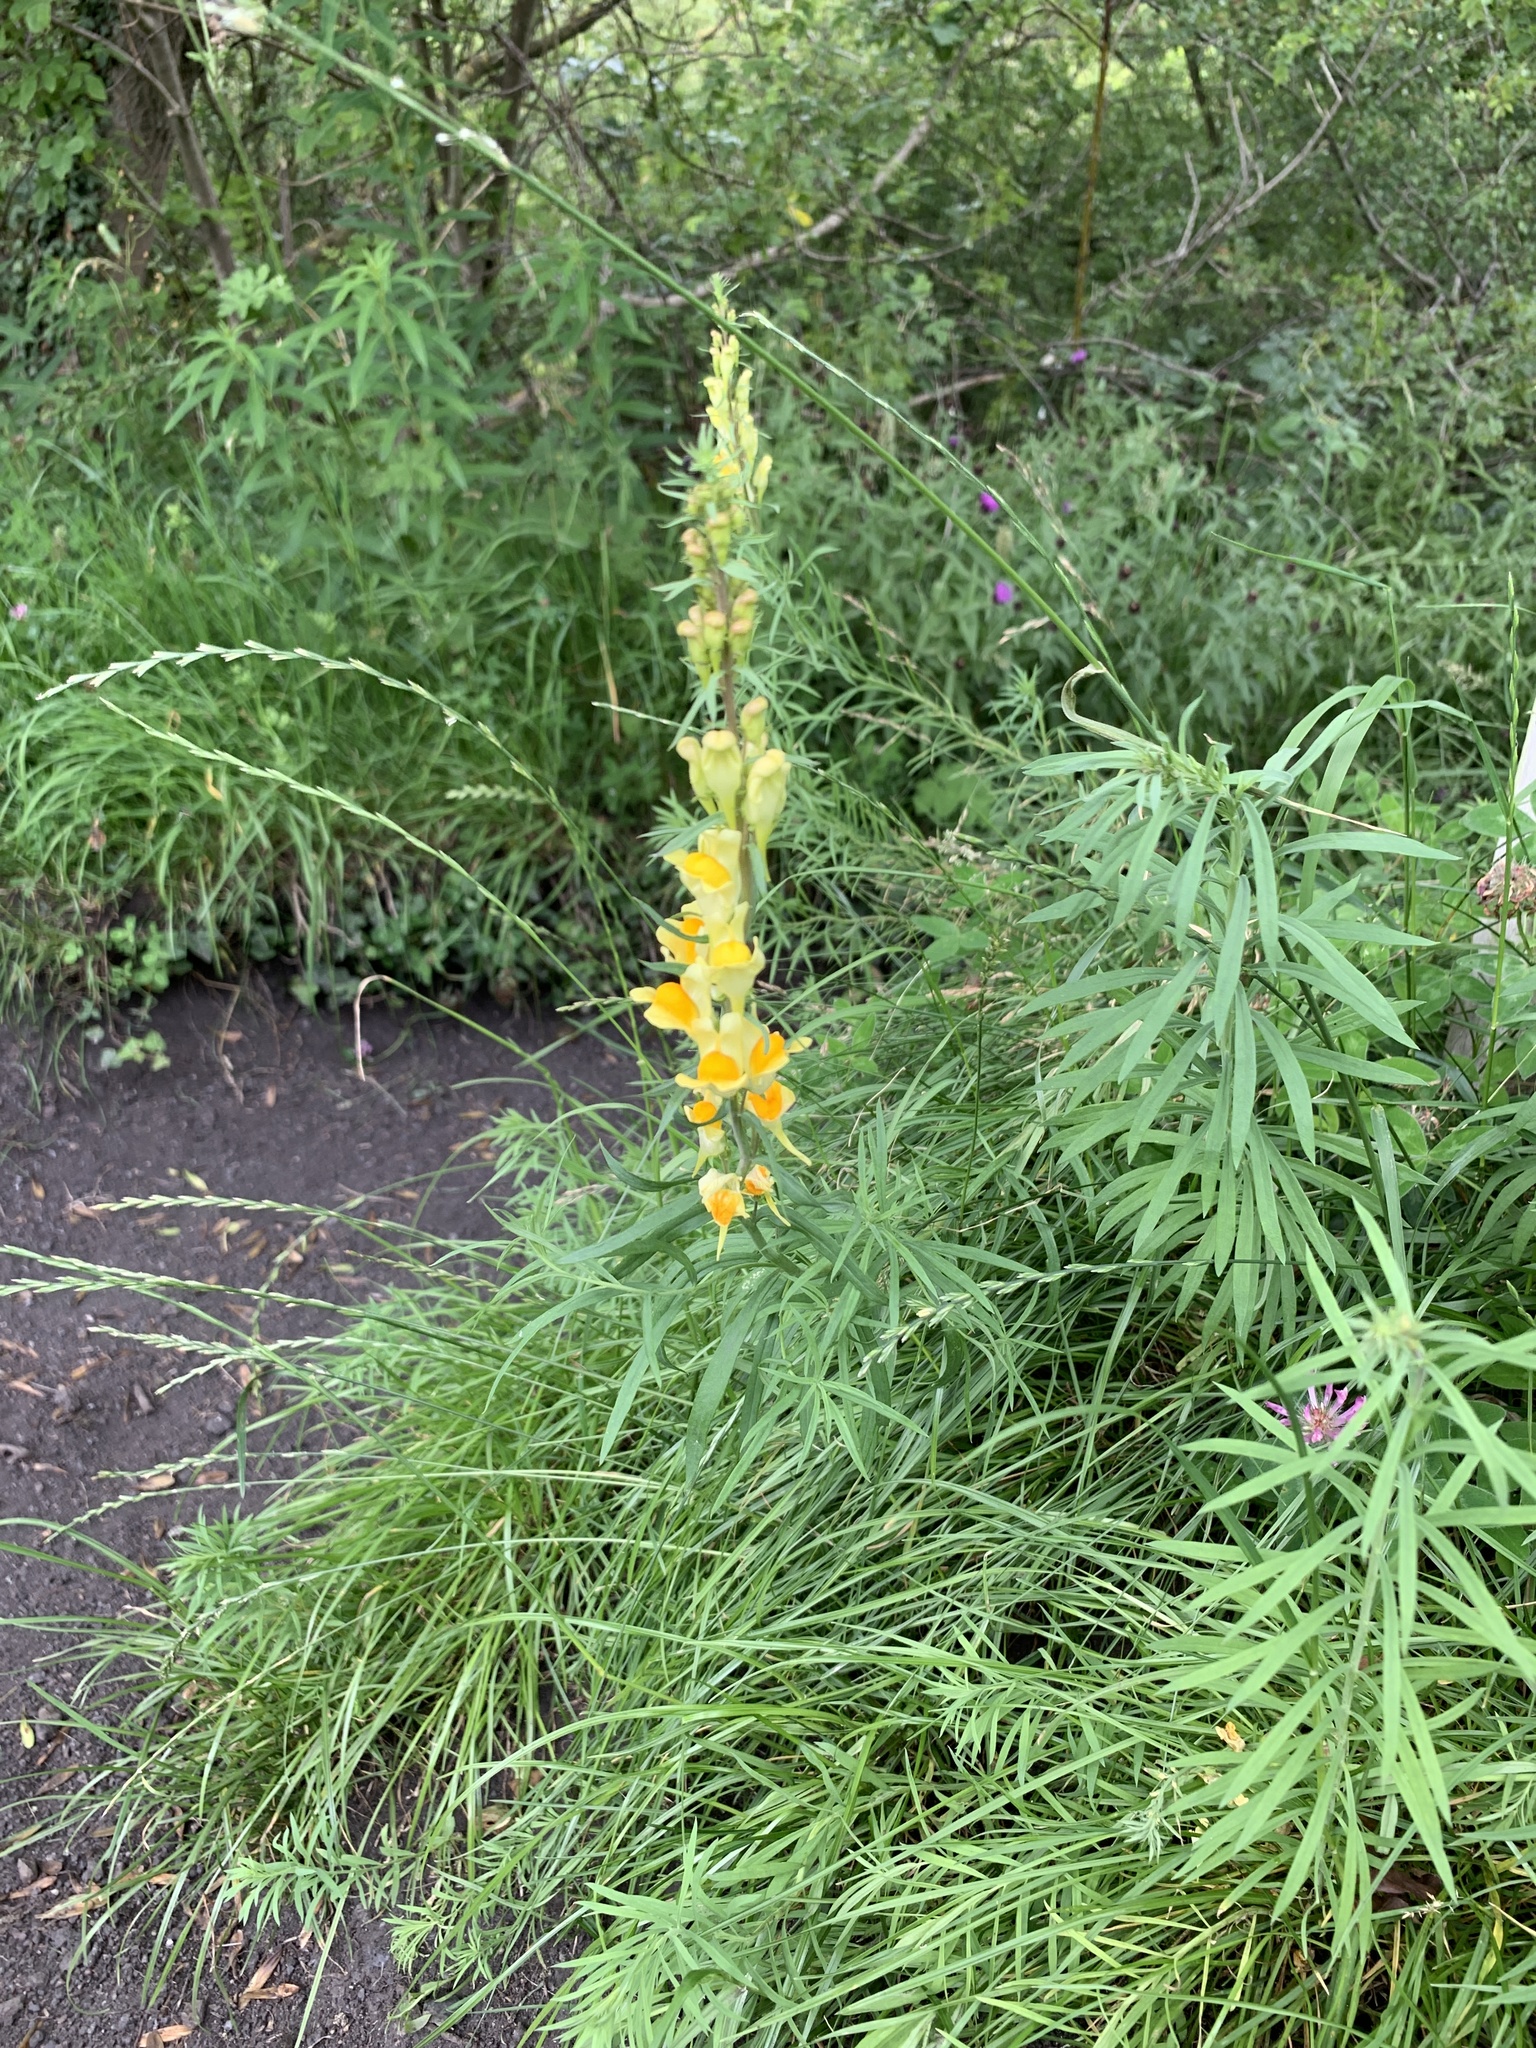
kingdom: Plantae
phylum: Tracheophyta
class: Magnoliopsida
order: Lamiales
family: Plantaginaceae
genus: Linaria
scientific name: Linaria vulgaris
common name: Butter and eggs
